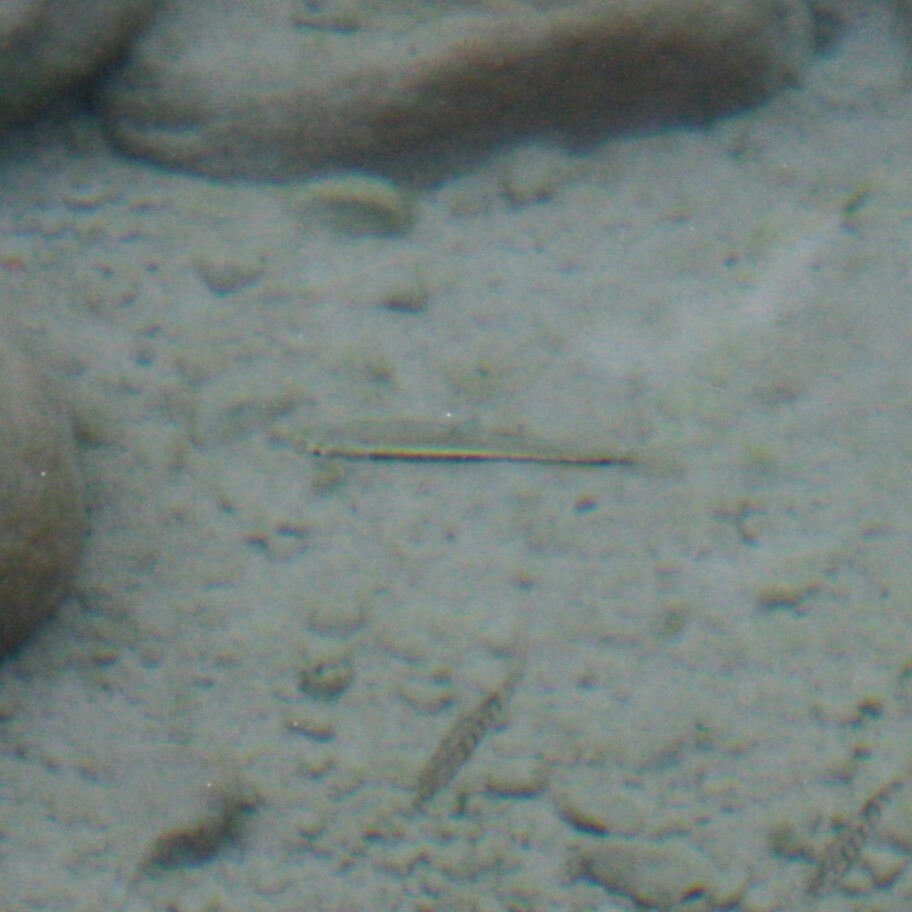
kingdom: Animalia
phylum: Chordata
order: Cypriniformes
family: Cyprinidae
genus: Candidia
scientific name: Candidia barbata
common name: Lake candidus dace
